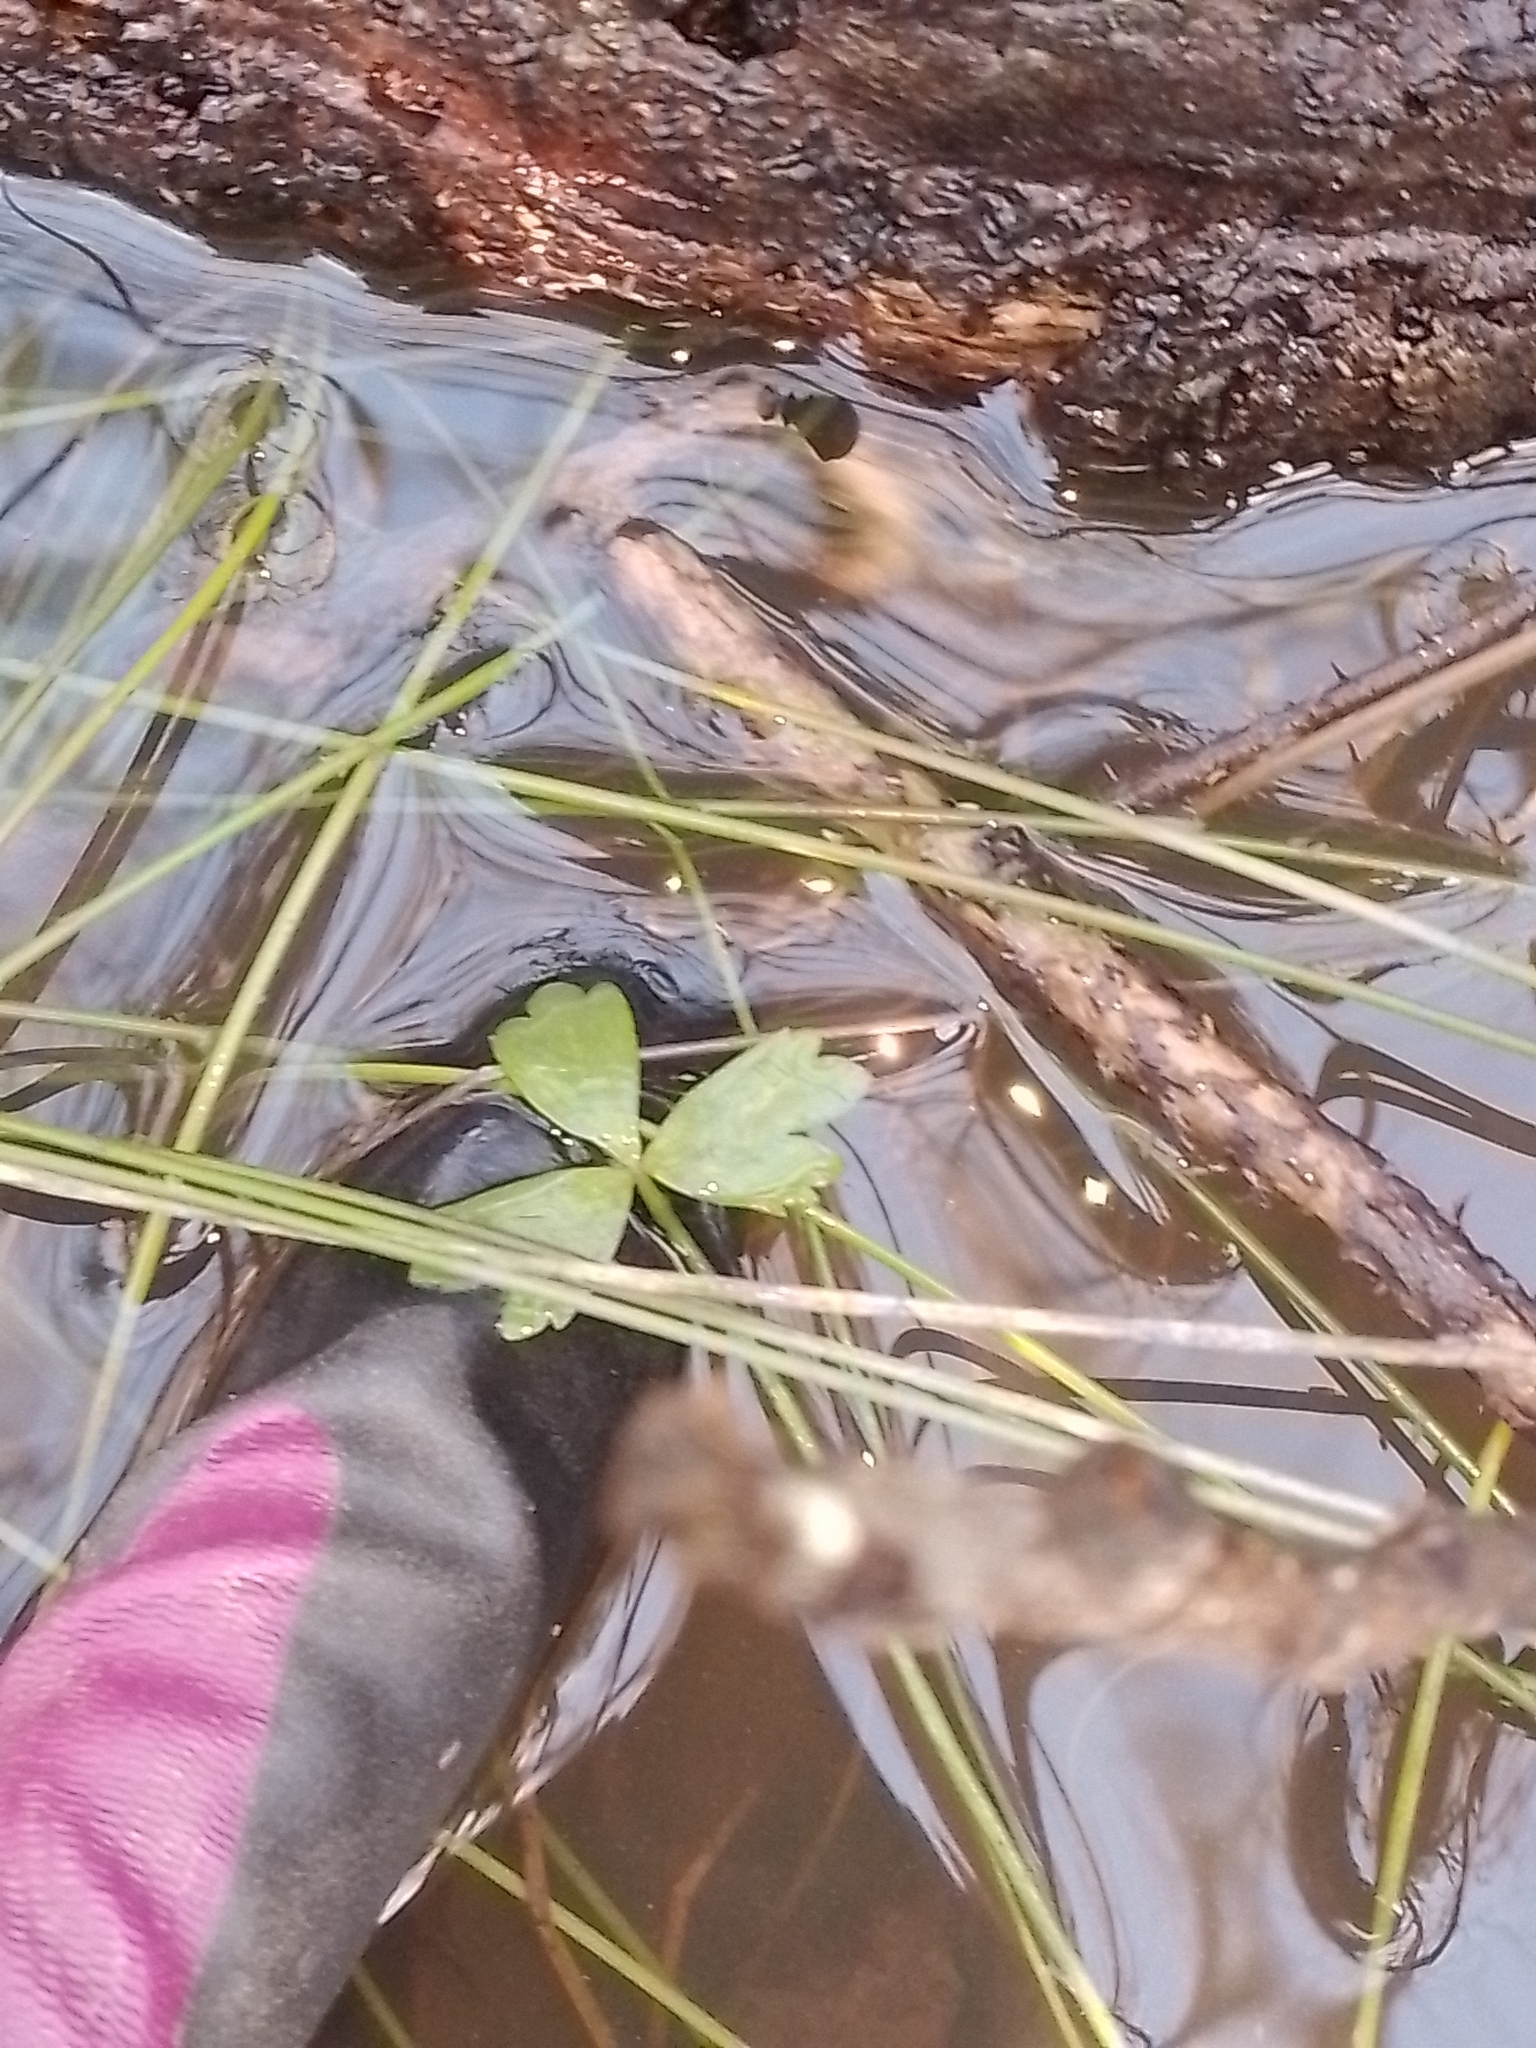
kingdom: Plantae
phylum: Tracheophyta
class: Magnoliopsida
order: Ranunculales
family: Ranunculaceae
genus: Ranunculus
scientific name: Ranunculus macropus
